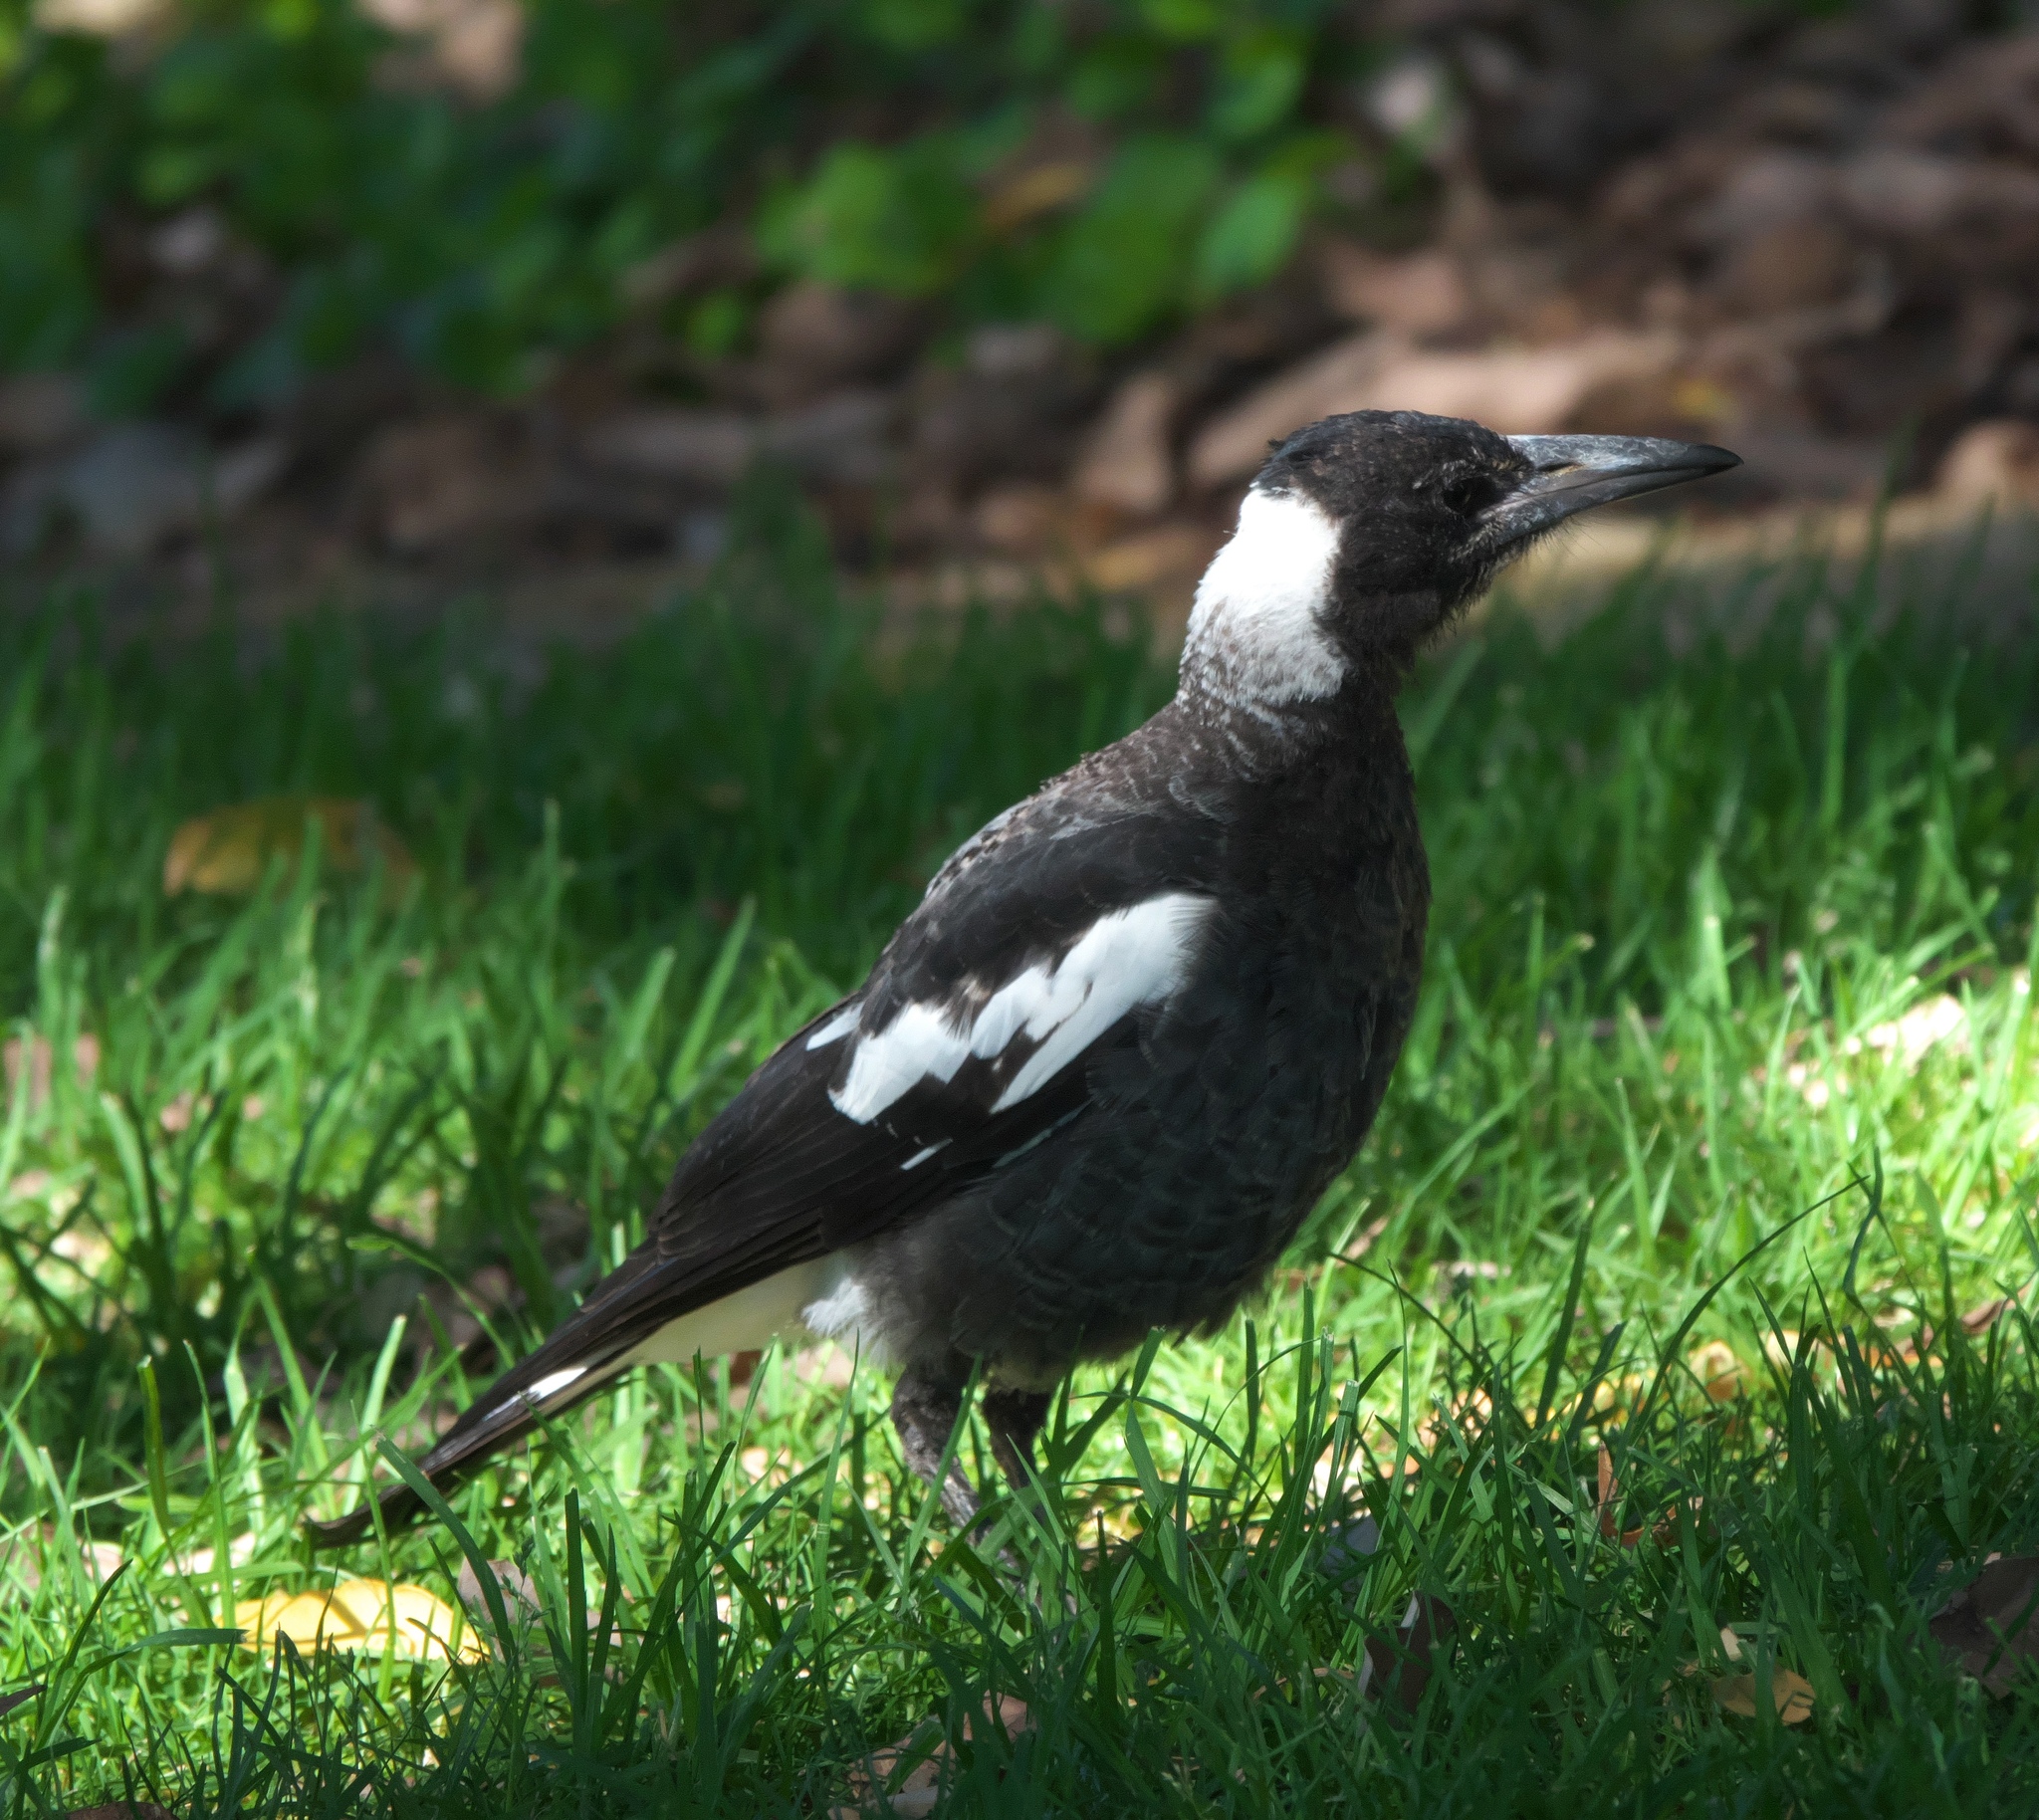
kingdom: Animalia
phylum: Chordata
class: Aves
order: Passeriformes
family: Cracticidae
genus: Gymnorhina
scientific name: Gymnorhina tibicen
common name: Australian magpie
